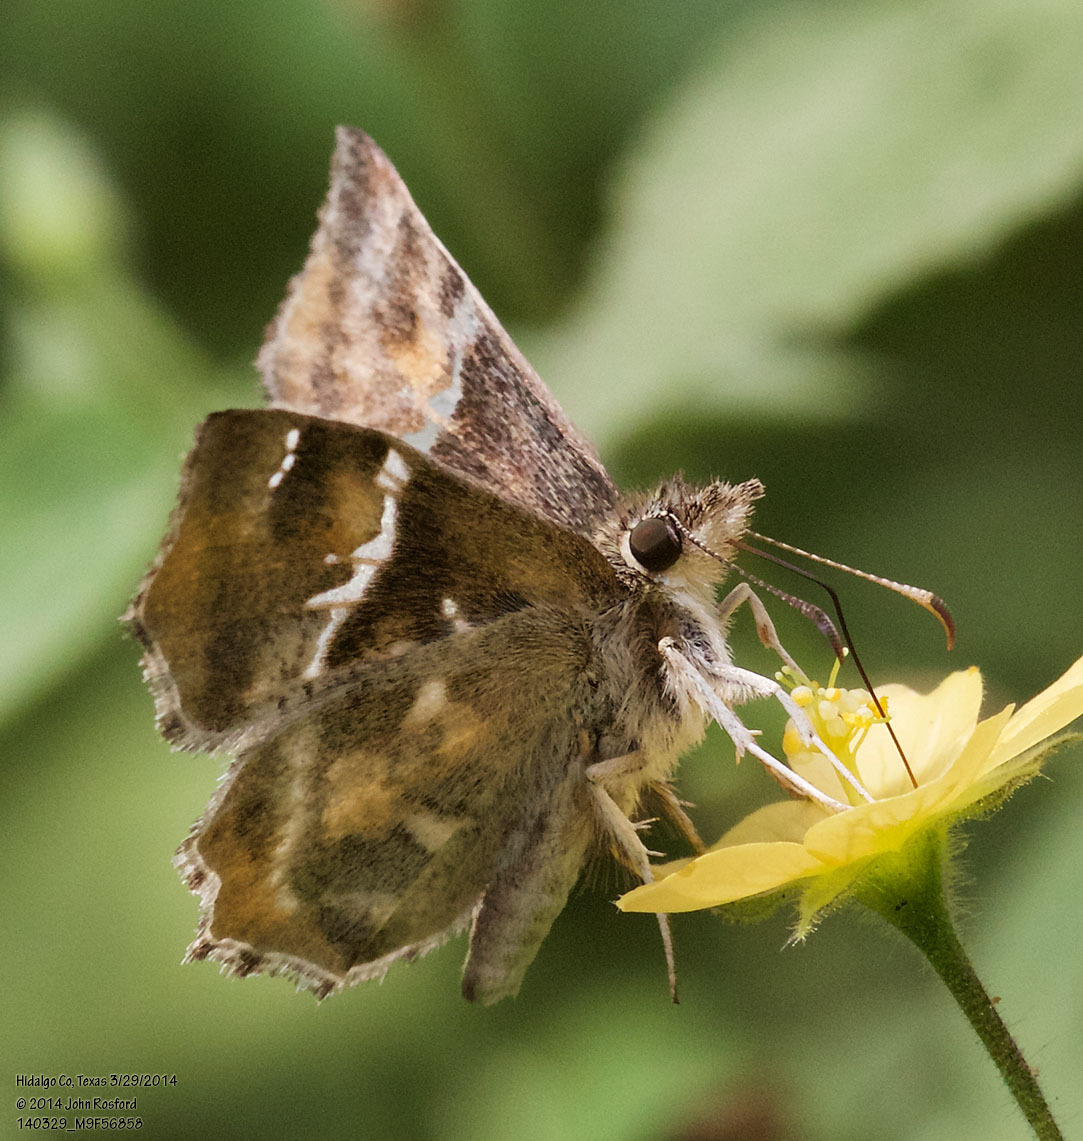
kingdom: Animalia
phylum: Arthropoda
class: Insecta
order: Lepidoptera
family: Hesperiidae
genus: Systasea
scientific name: Systasea pulverulenta
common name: Texas powdered skipper
